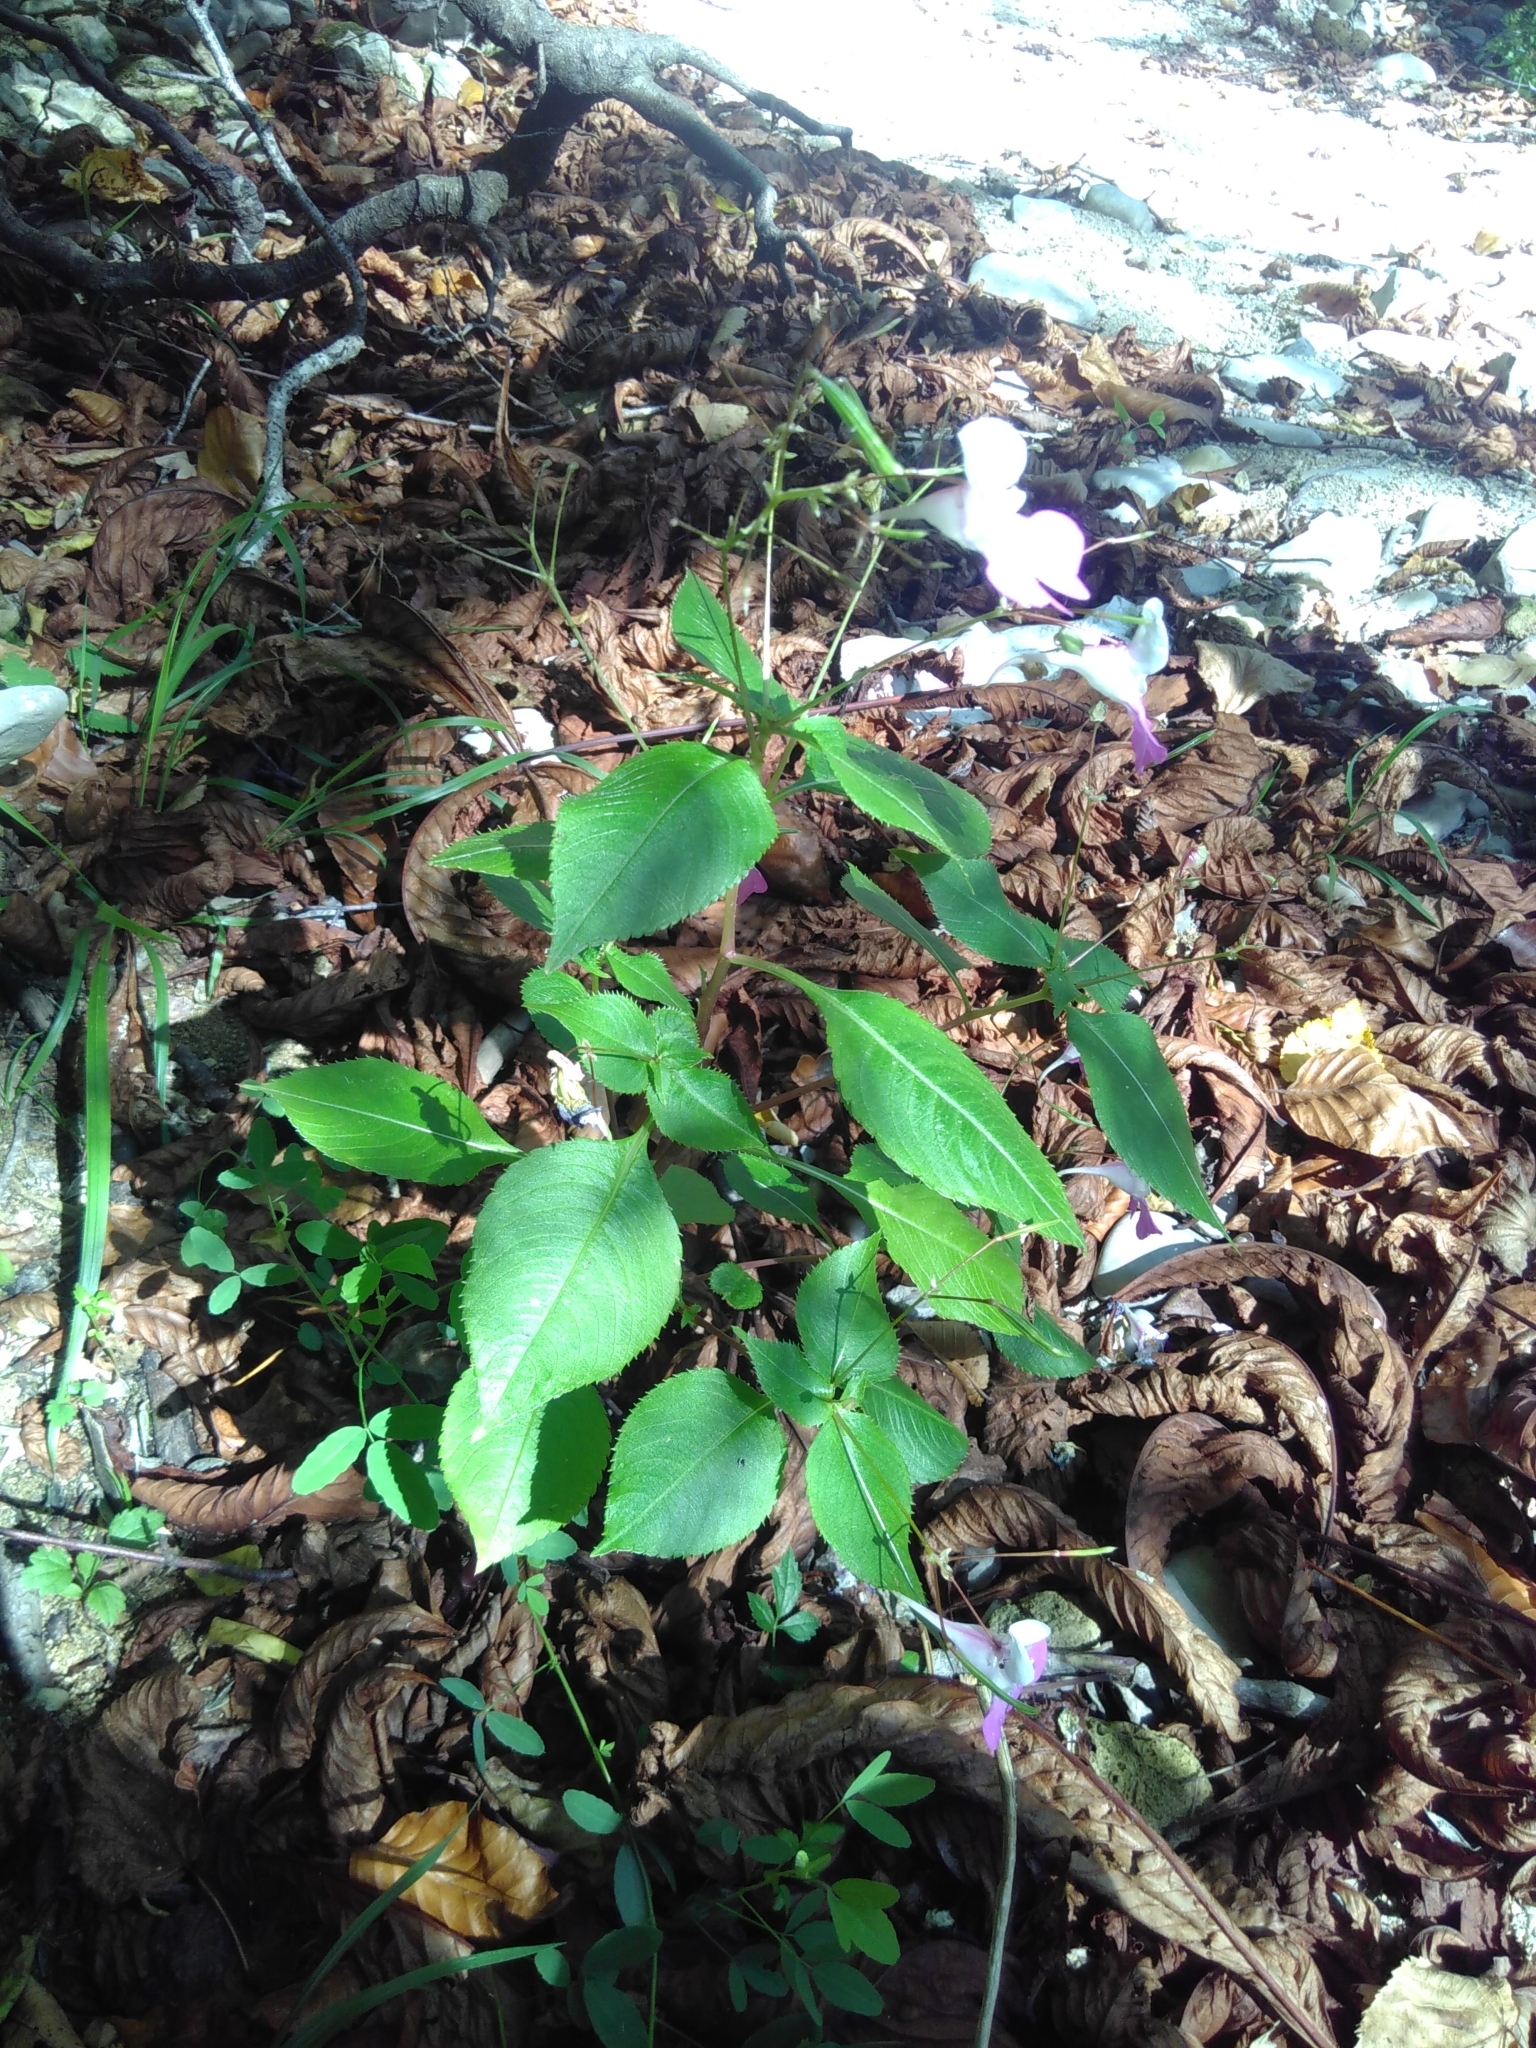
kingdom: Plantae
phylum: Tracheophyta
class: Magnoliopsida
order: Ericales
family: Balsaminaceae
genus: Impatiens
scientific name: Impatiens balfourii
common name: Balfour's touch-me-not
